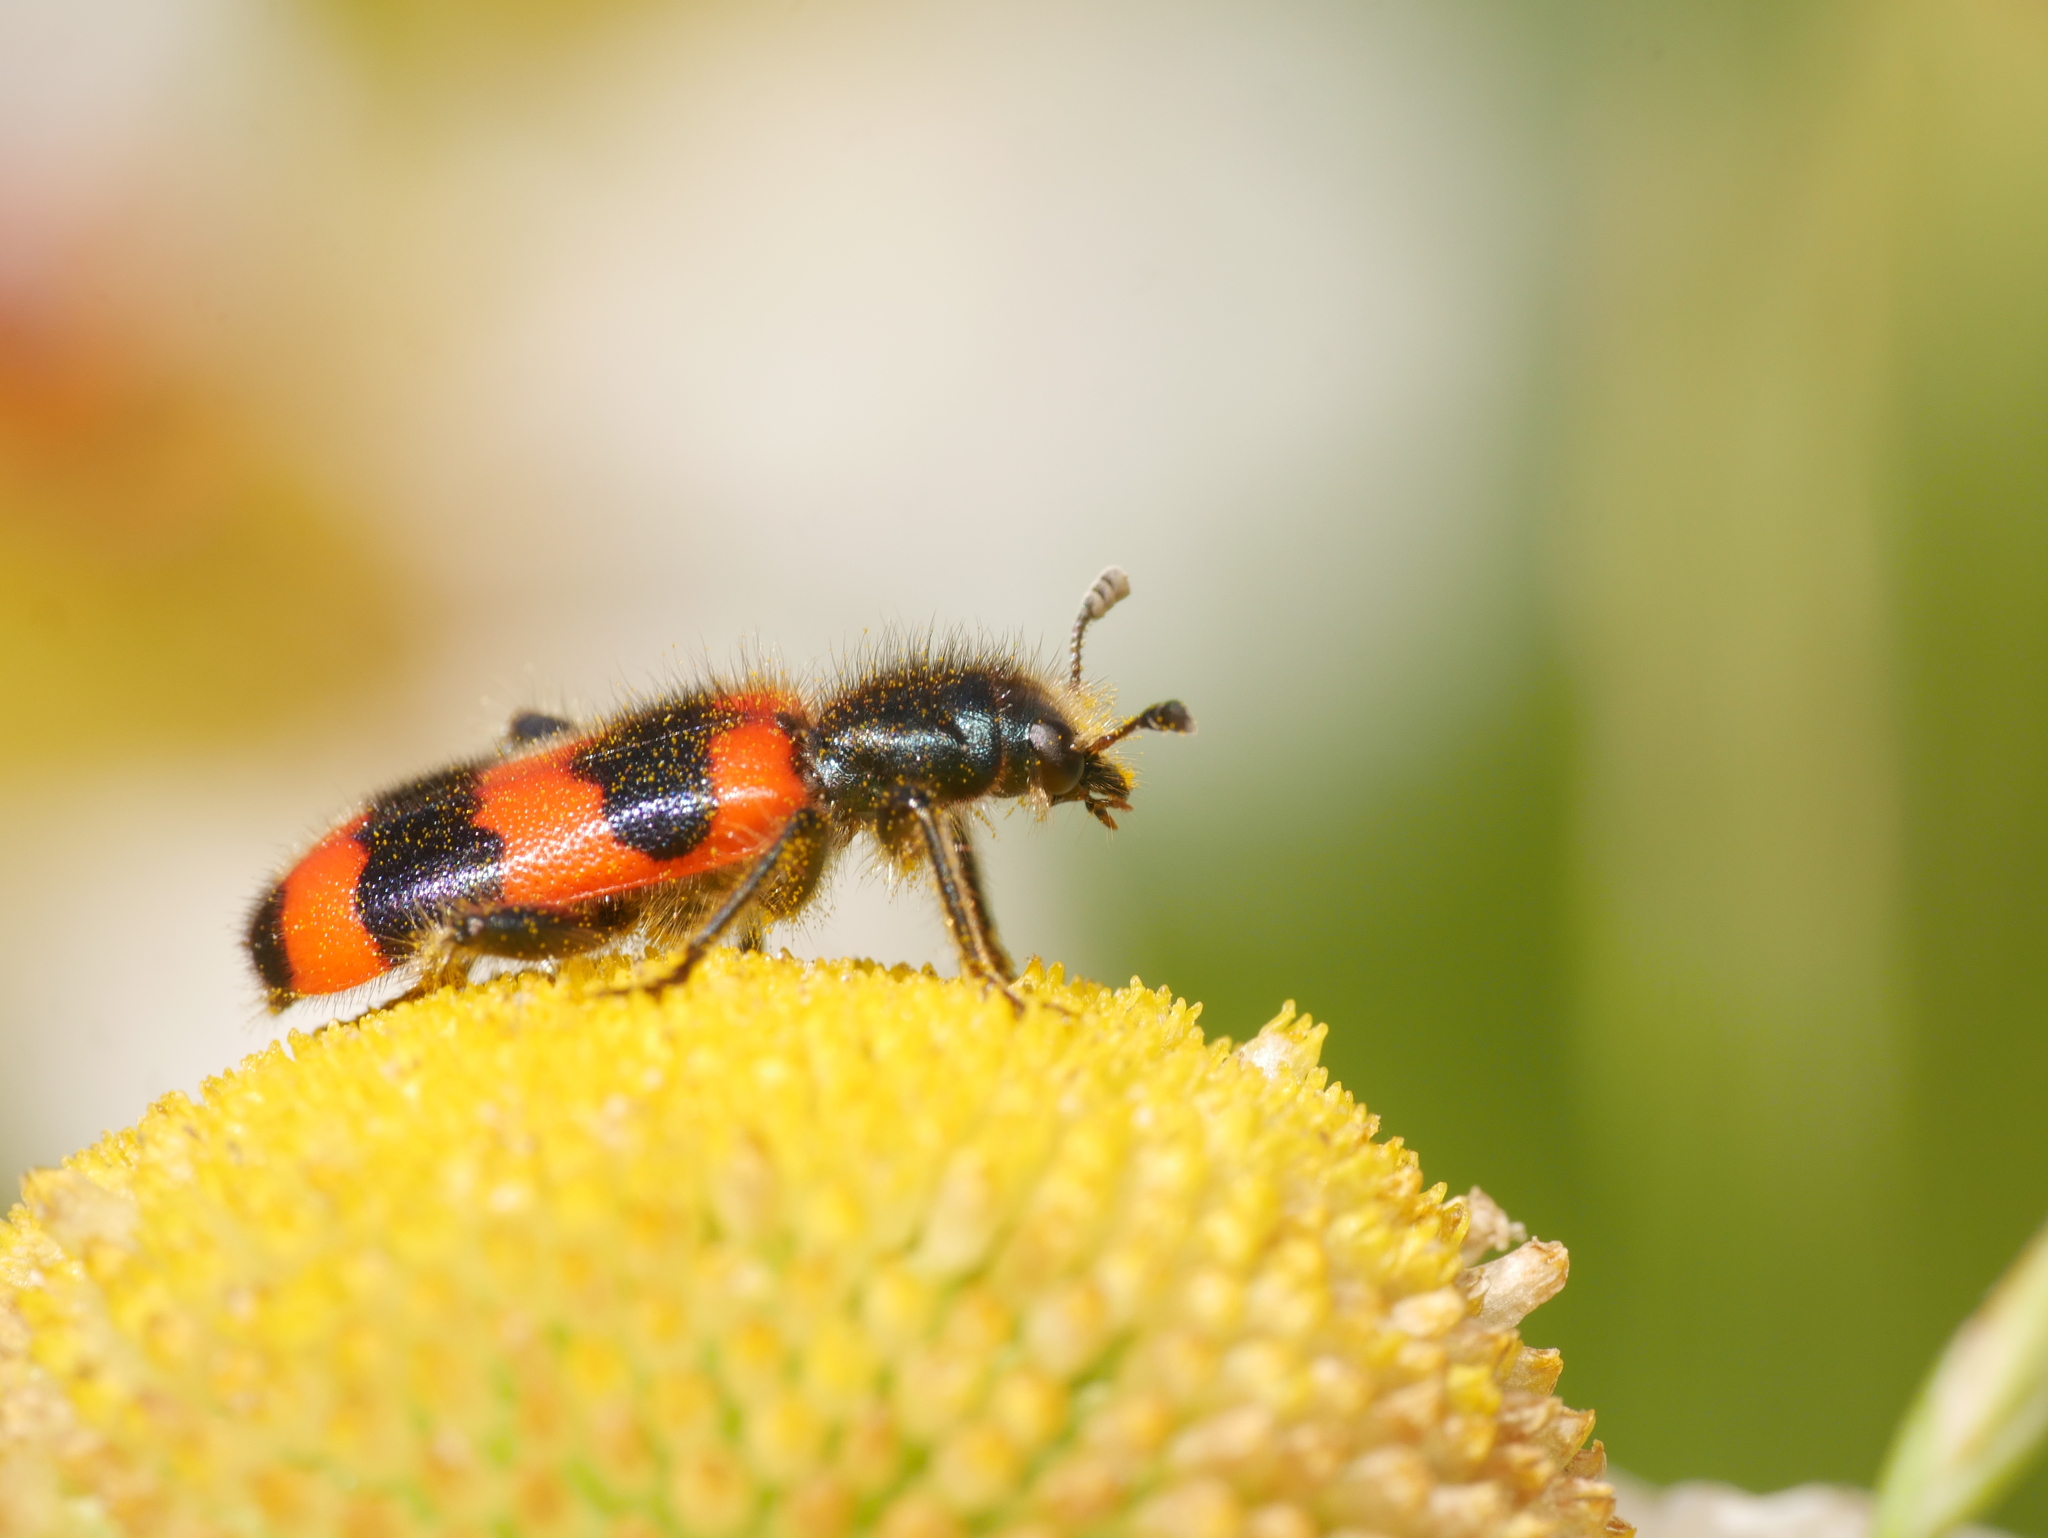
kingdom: Animalia
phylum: Arthropoda
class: Insecta
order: Coleoptera
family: Cleridae
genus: Trichodes
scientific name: Trichodes apiarius
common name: Bee-eating beetle
